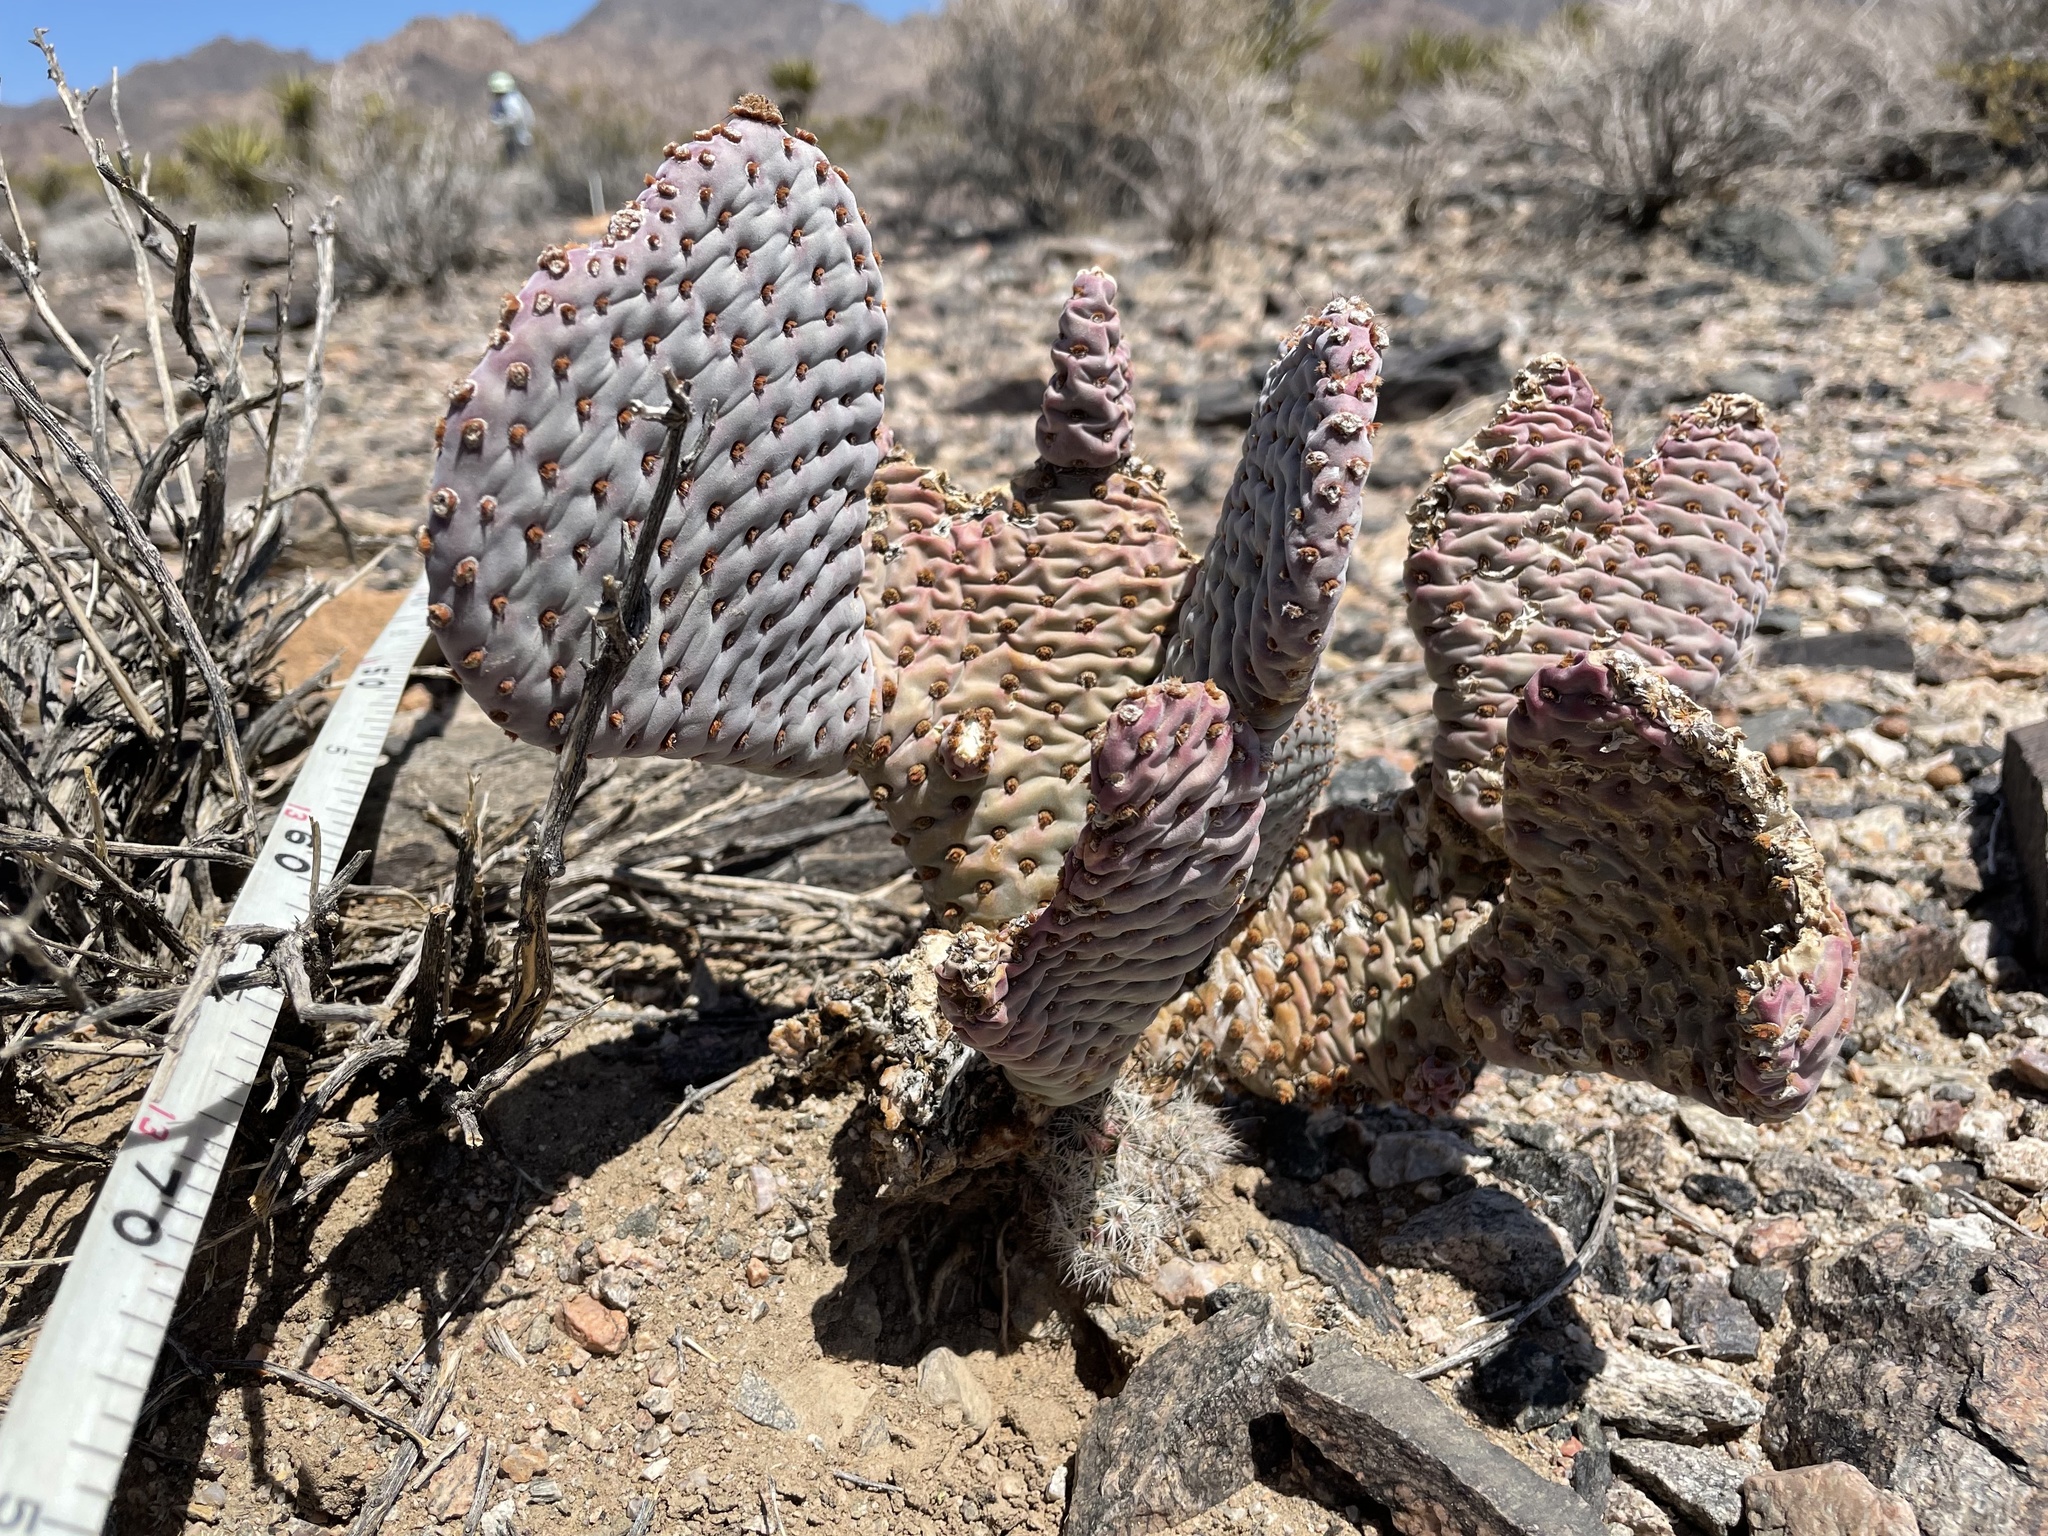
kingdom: Plantae
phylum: Tracheophyta
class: Magnoliopsida
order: Caryophyllales
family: Cactaceae
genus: Opuntia
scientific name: Opuntia basilaris
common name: Beavertail prickly-pear
